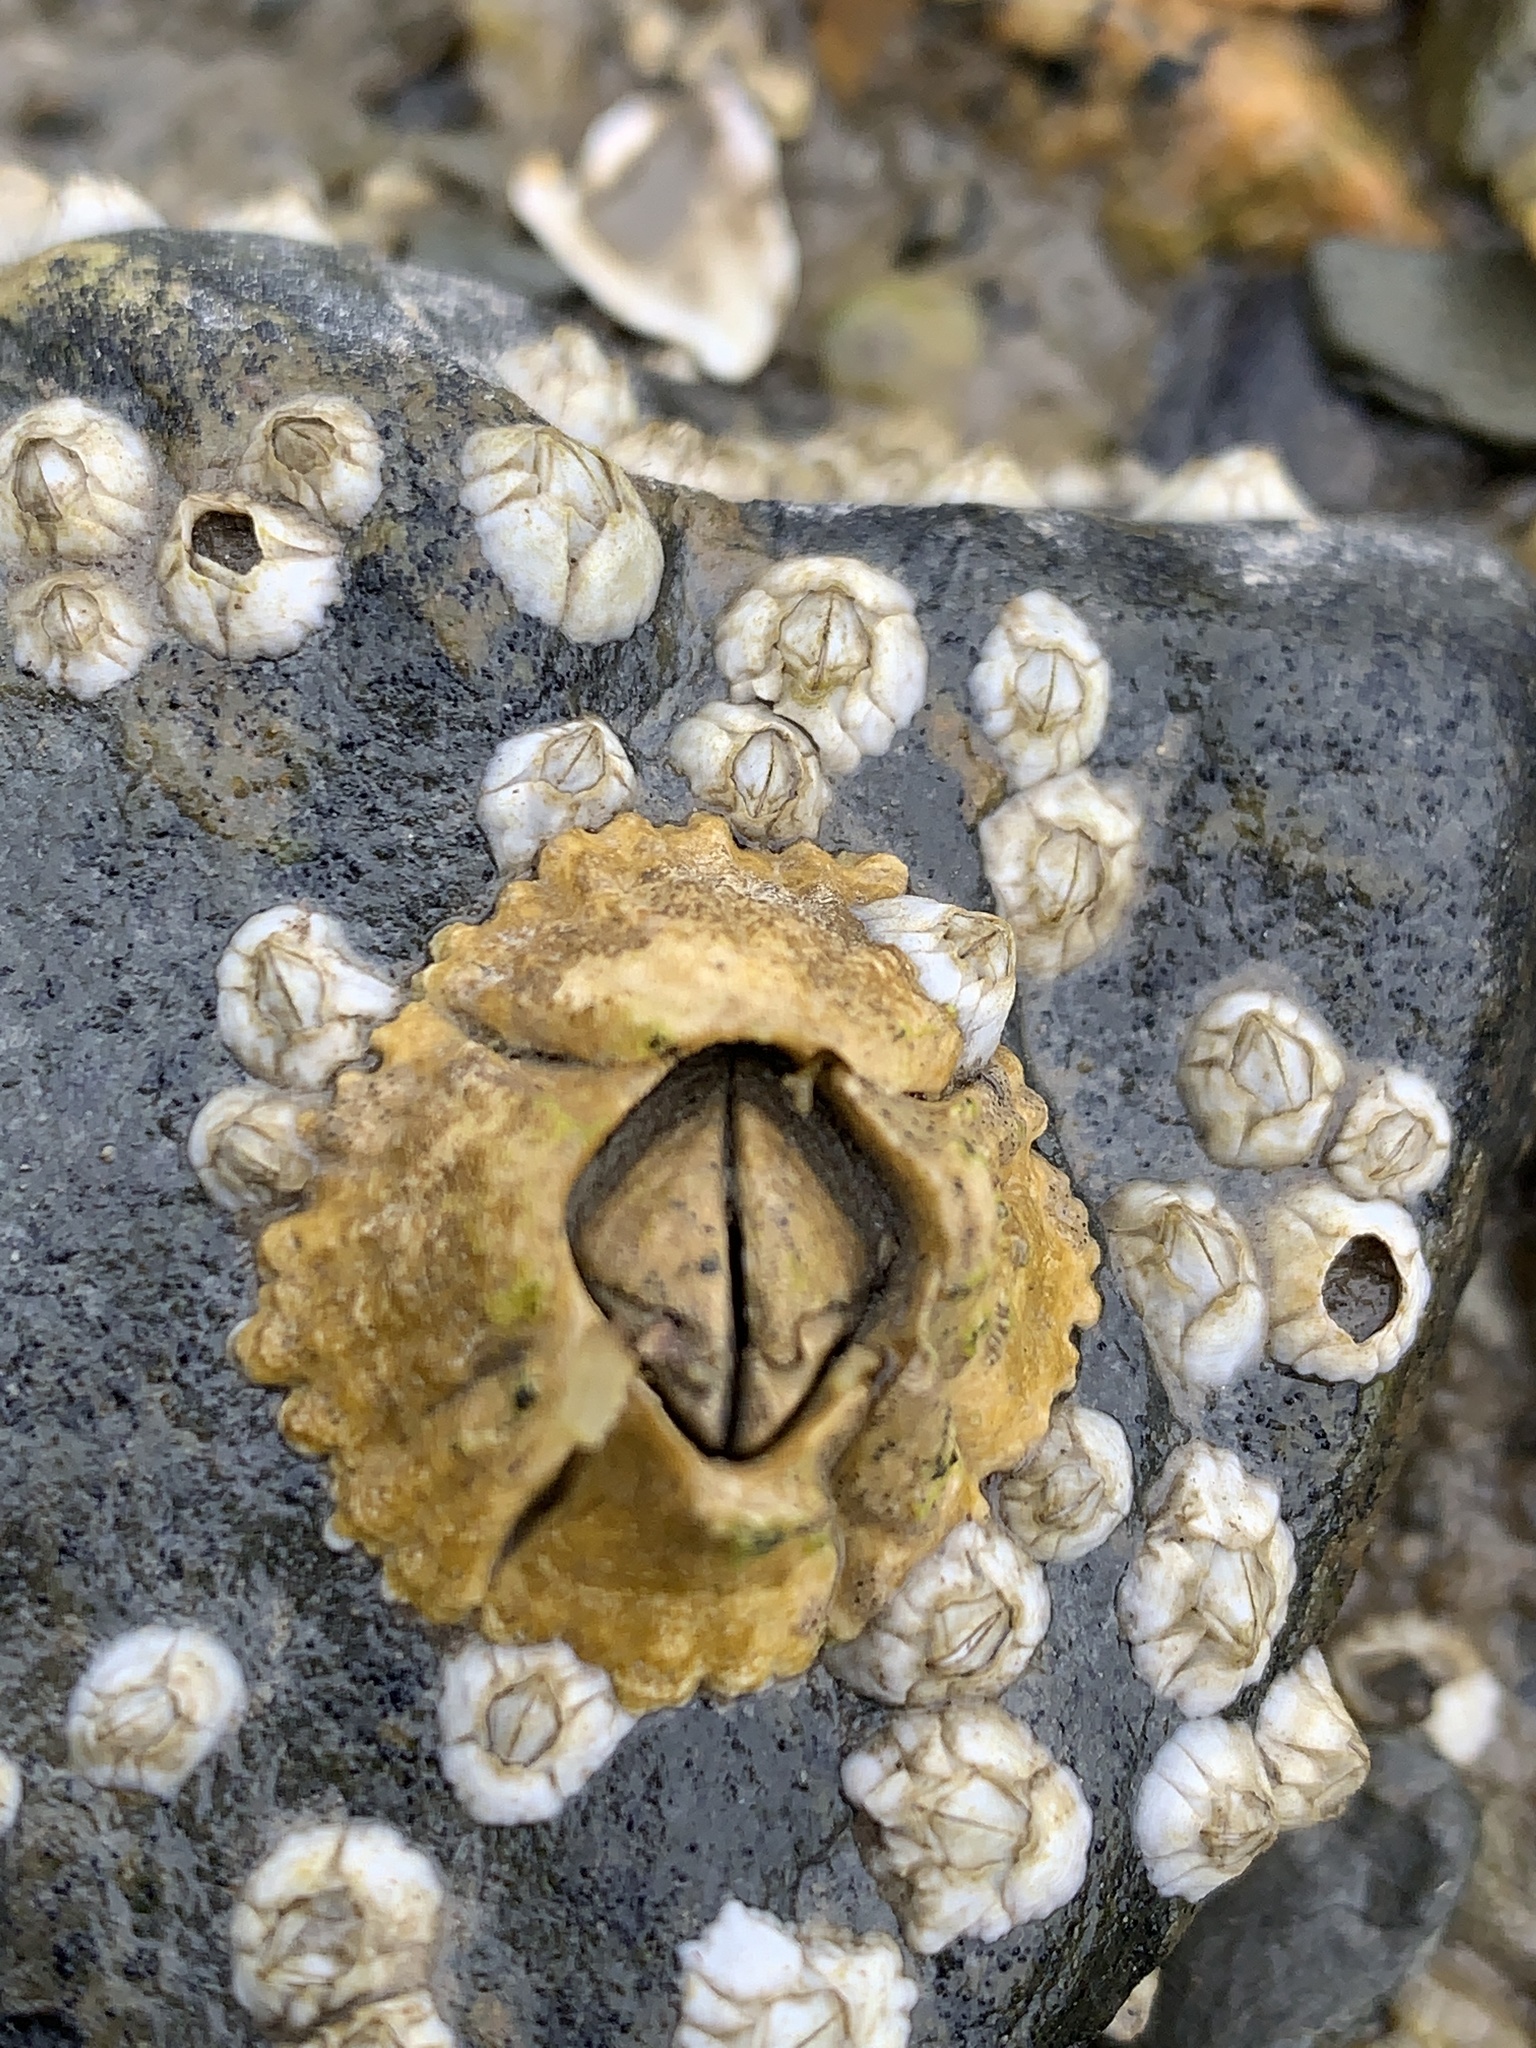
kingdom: Animalia
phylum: Arthropoda
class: Maxillopoda
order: Sessilia
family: Archaeobalanidae
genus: Semibalanus
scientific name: Semibalanus balanoides
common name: Acorn barnacle
